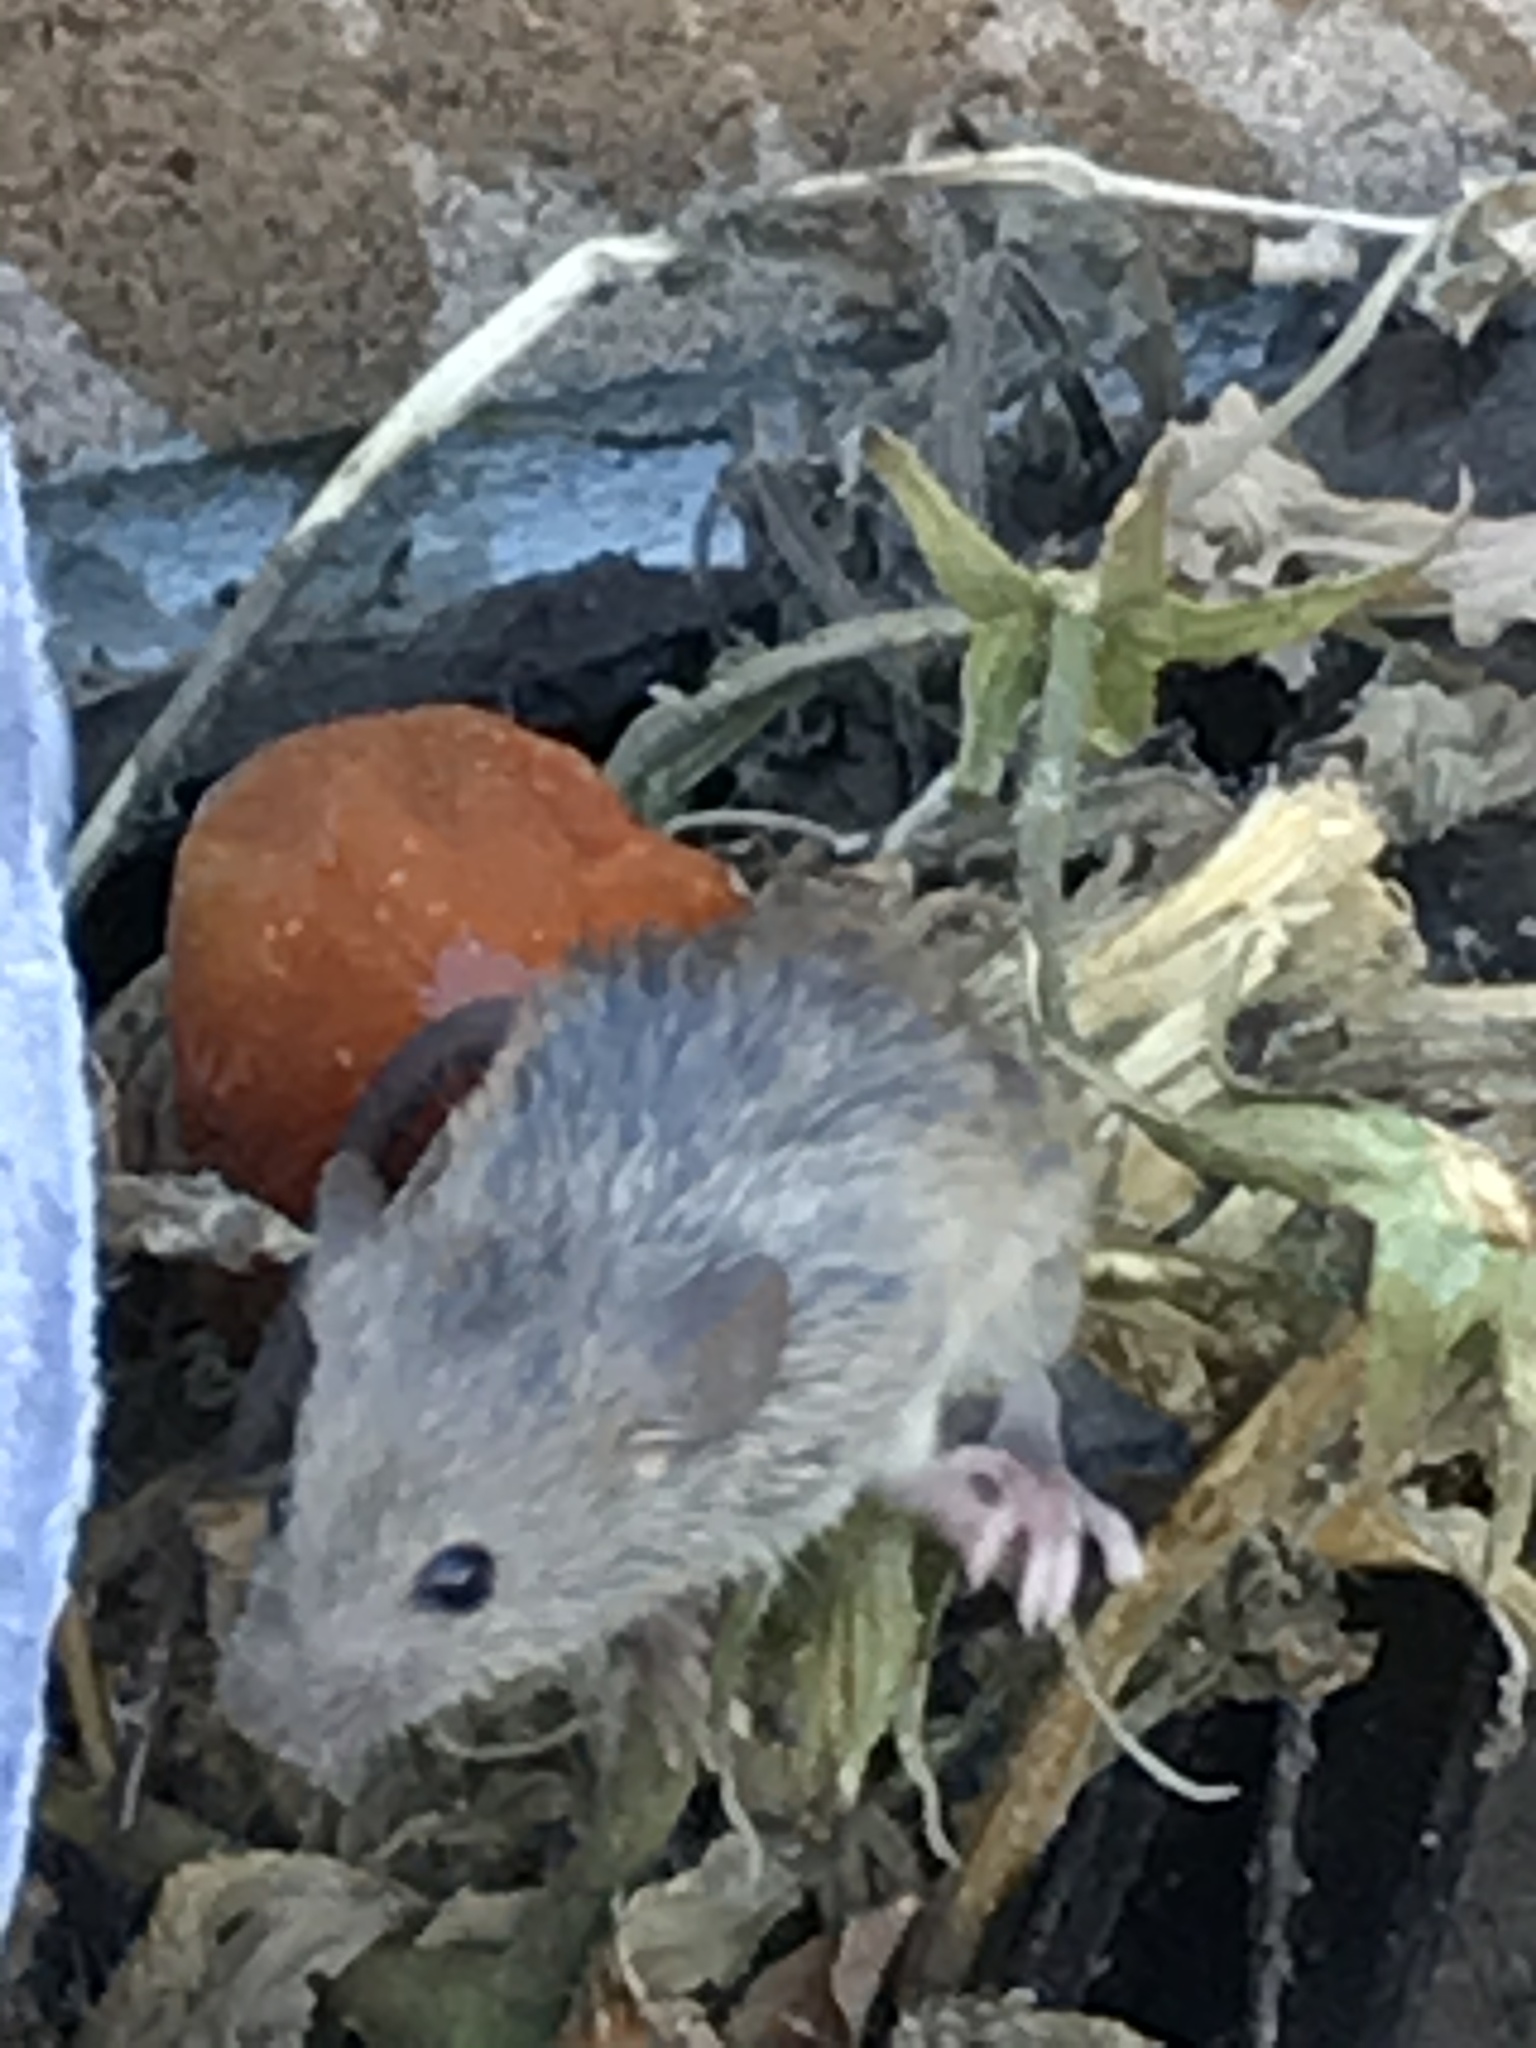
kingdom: Animalia
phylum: Chordata
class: Mammalia
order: Rodentia
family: Muridae
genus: Mus
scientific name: Mus musculus
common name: House mouse
